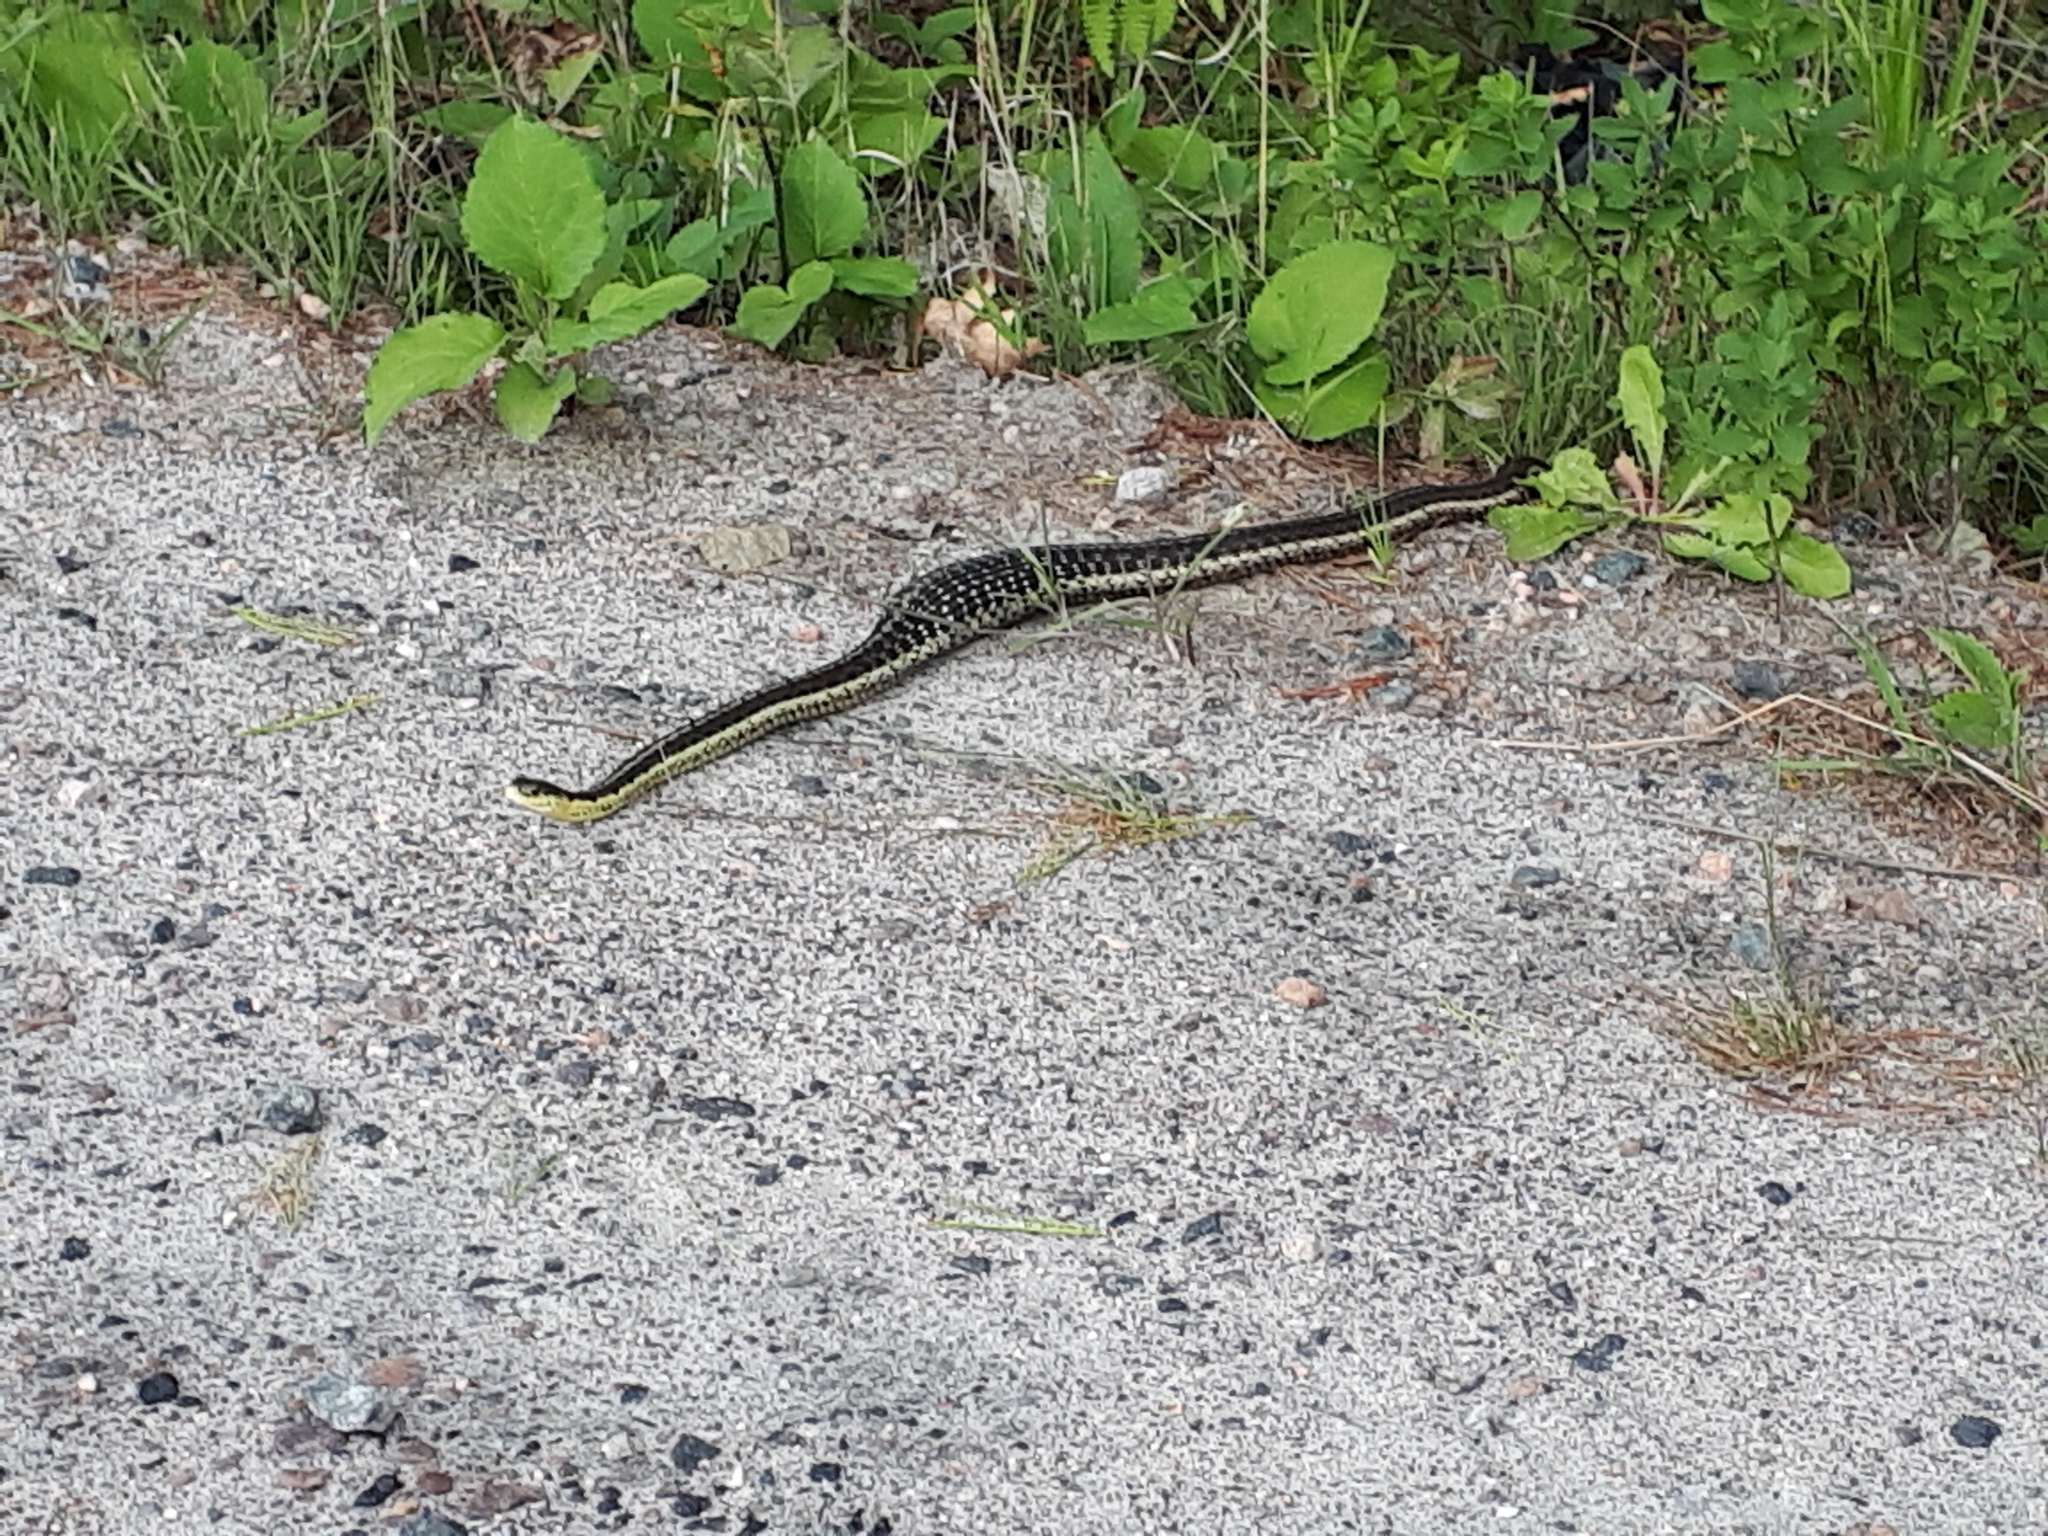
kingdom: Animalia
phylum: Chordata
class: Squamata
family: Colubridae
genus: Thamnophis
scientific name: Thamnophis sirtalis
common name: Common garter snake
